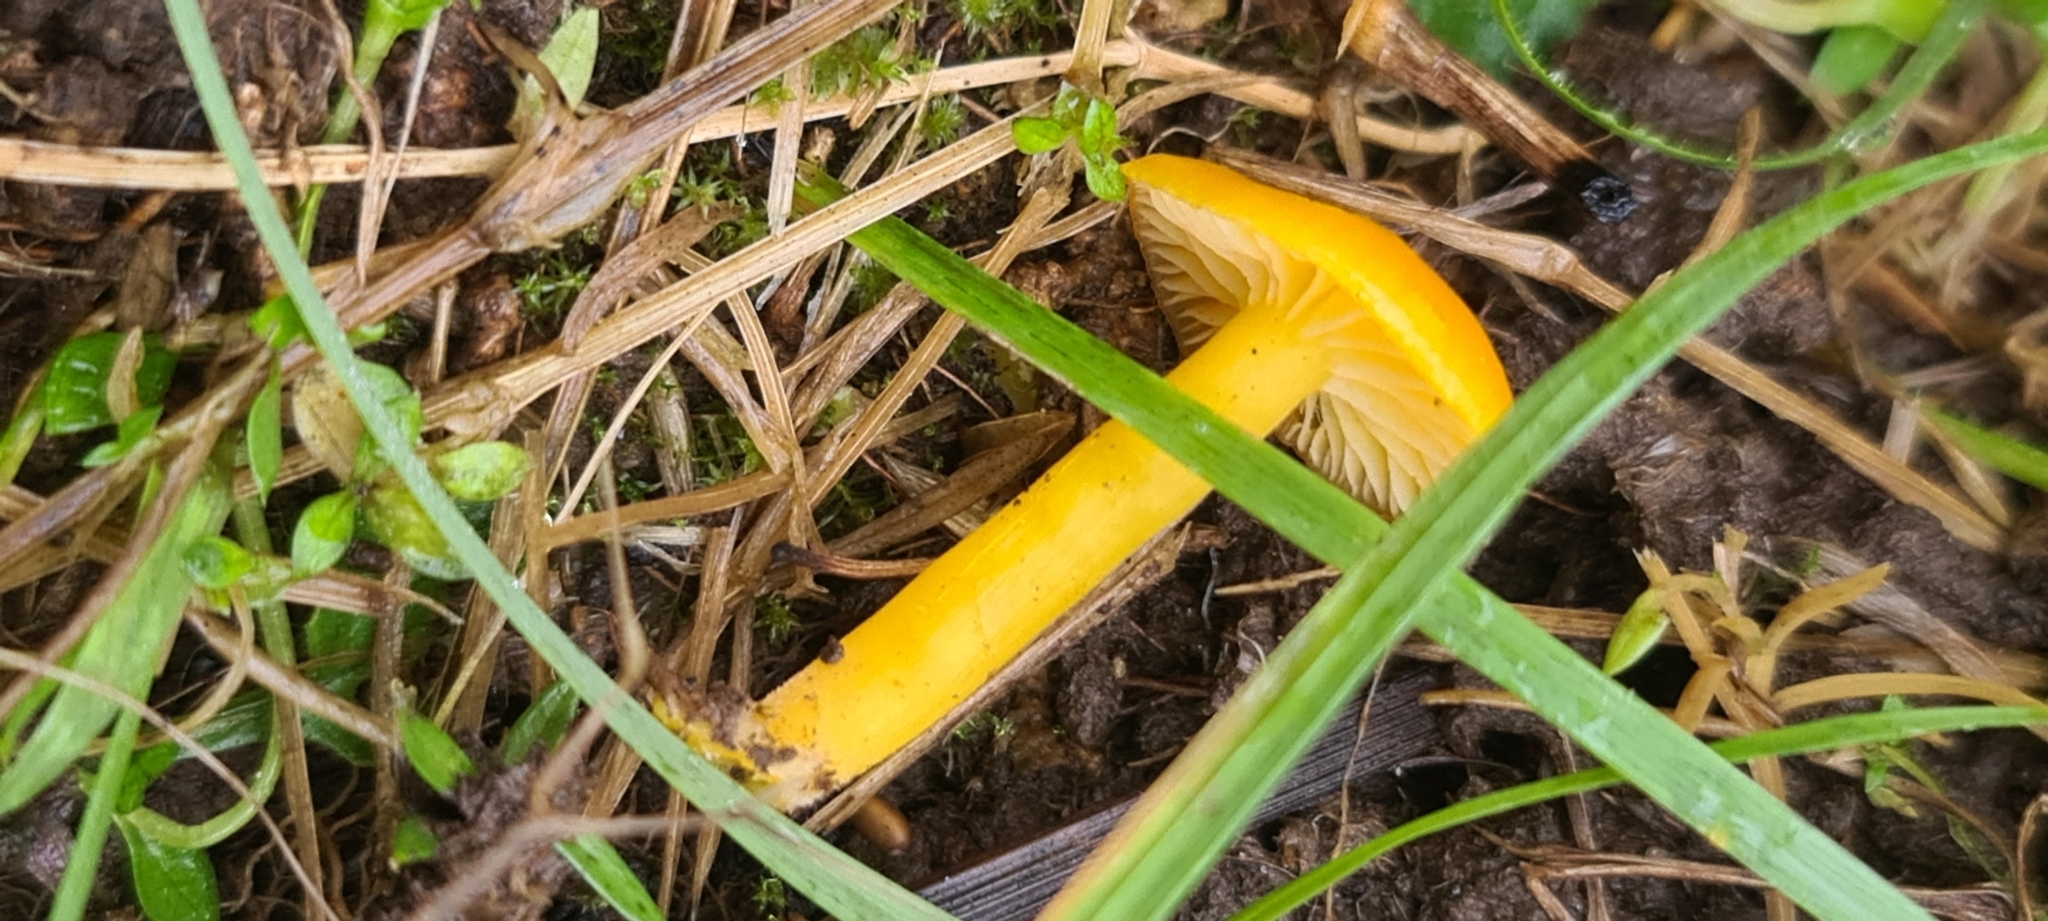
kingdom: Fungi
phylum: Basidiomycota
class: Agaricomycetes
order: Agaricales
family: Hygrophoraceae
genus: Hygrocybe
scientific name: Hygrocybe ceracea
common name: Butter waxcap
